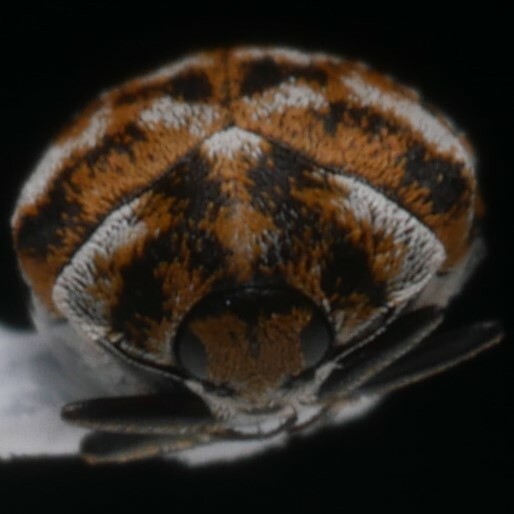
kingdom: Animalia
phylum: Arthropoda
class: Insecta
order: Coleoptera
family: Dermestidae
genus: Anthrenus
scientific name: Anthrenus verbasci
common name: Varied carpet beetle
